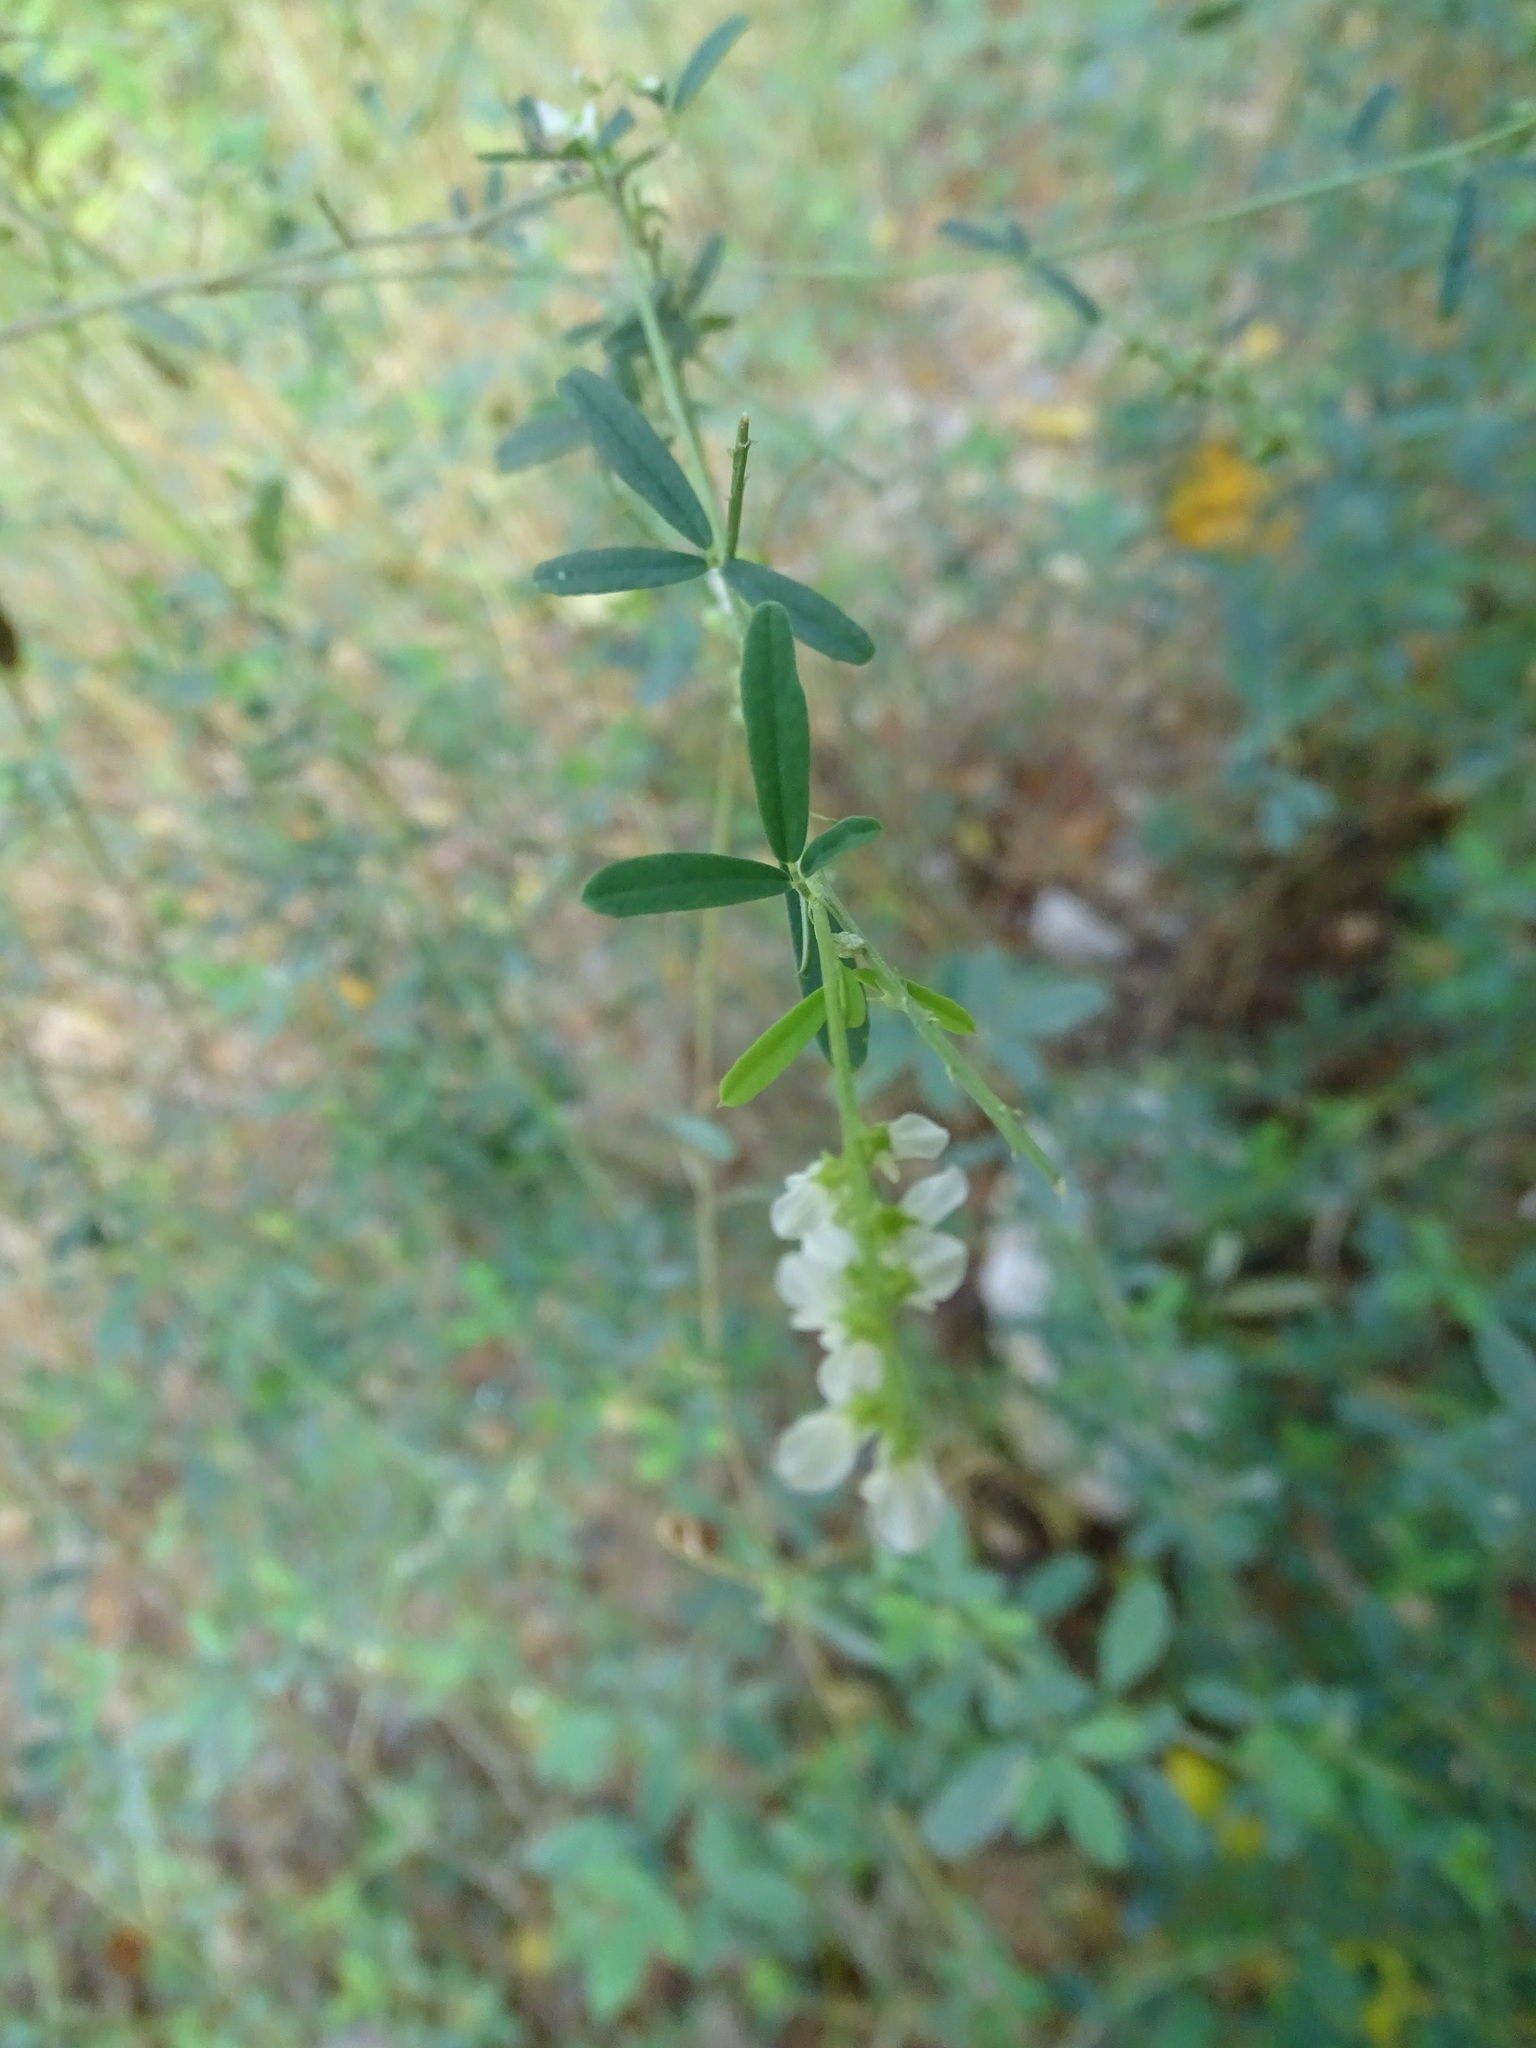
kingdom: Plantae
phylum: Tracheophyta
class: Magnoliopsida
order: Fabales
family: Fabaceae
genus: Melilotus
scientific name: Melilotus albus
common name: White melilot
